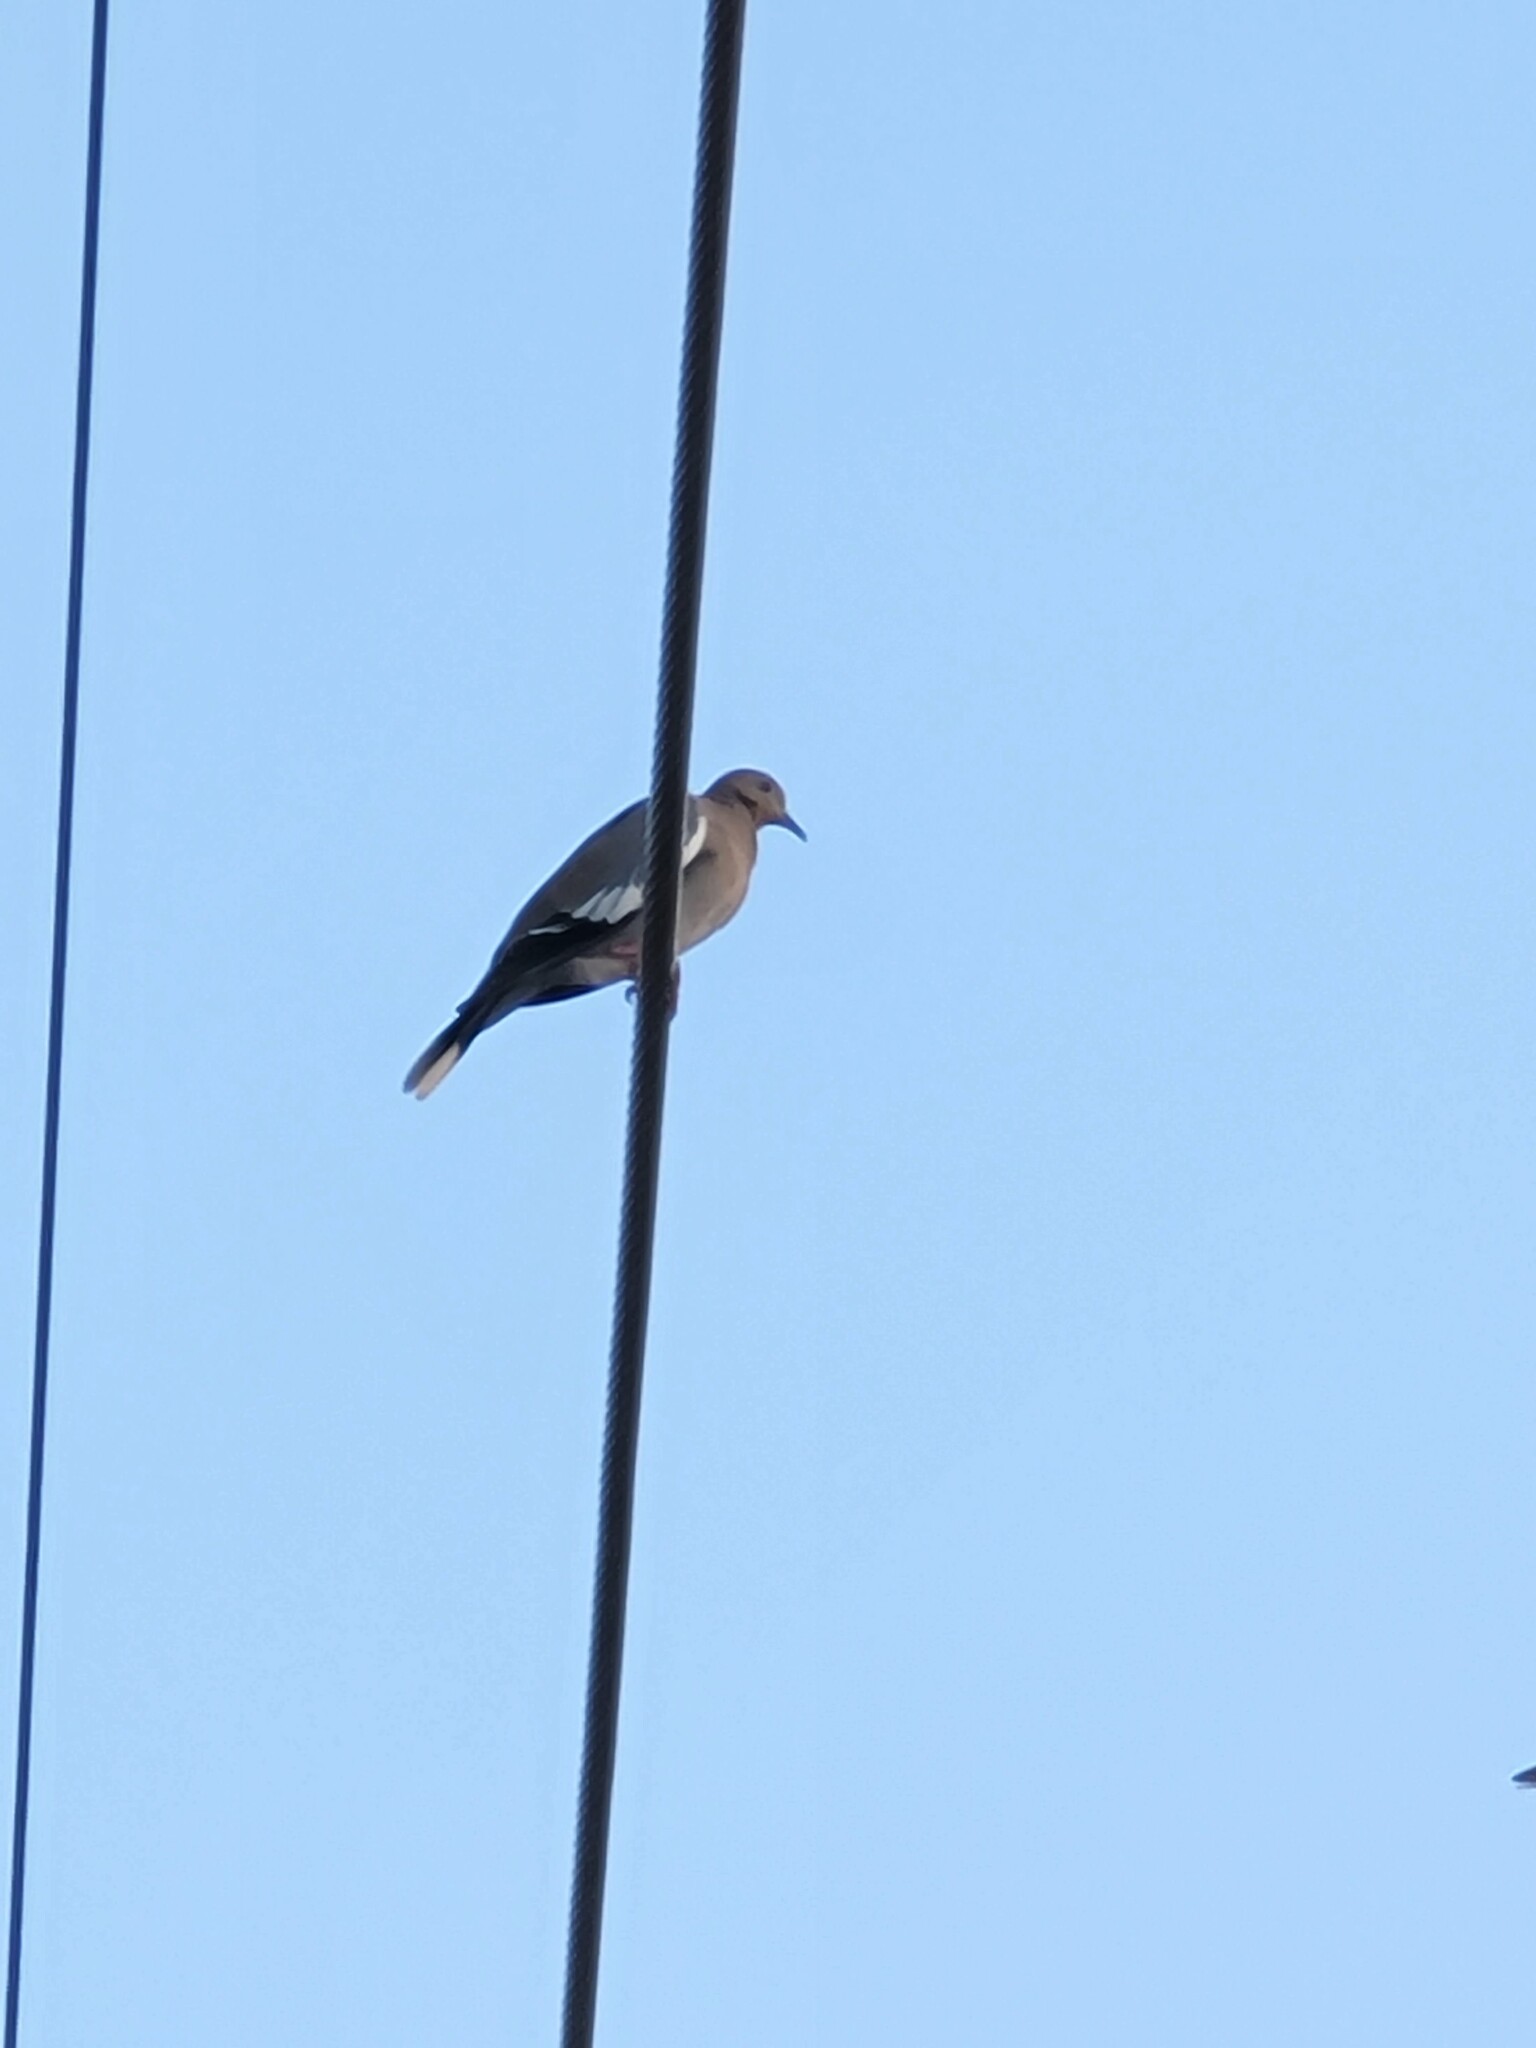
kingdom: Animalia
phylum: Chordata
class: Aves
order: Columbiformes
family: Columbidae
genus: Zenaida
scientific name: Zenaida asiatica
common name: White-winged dove
